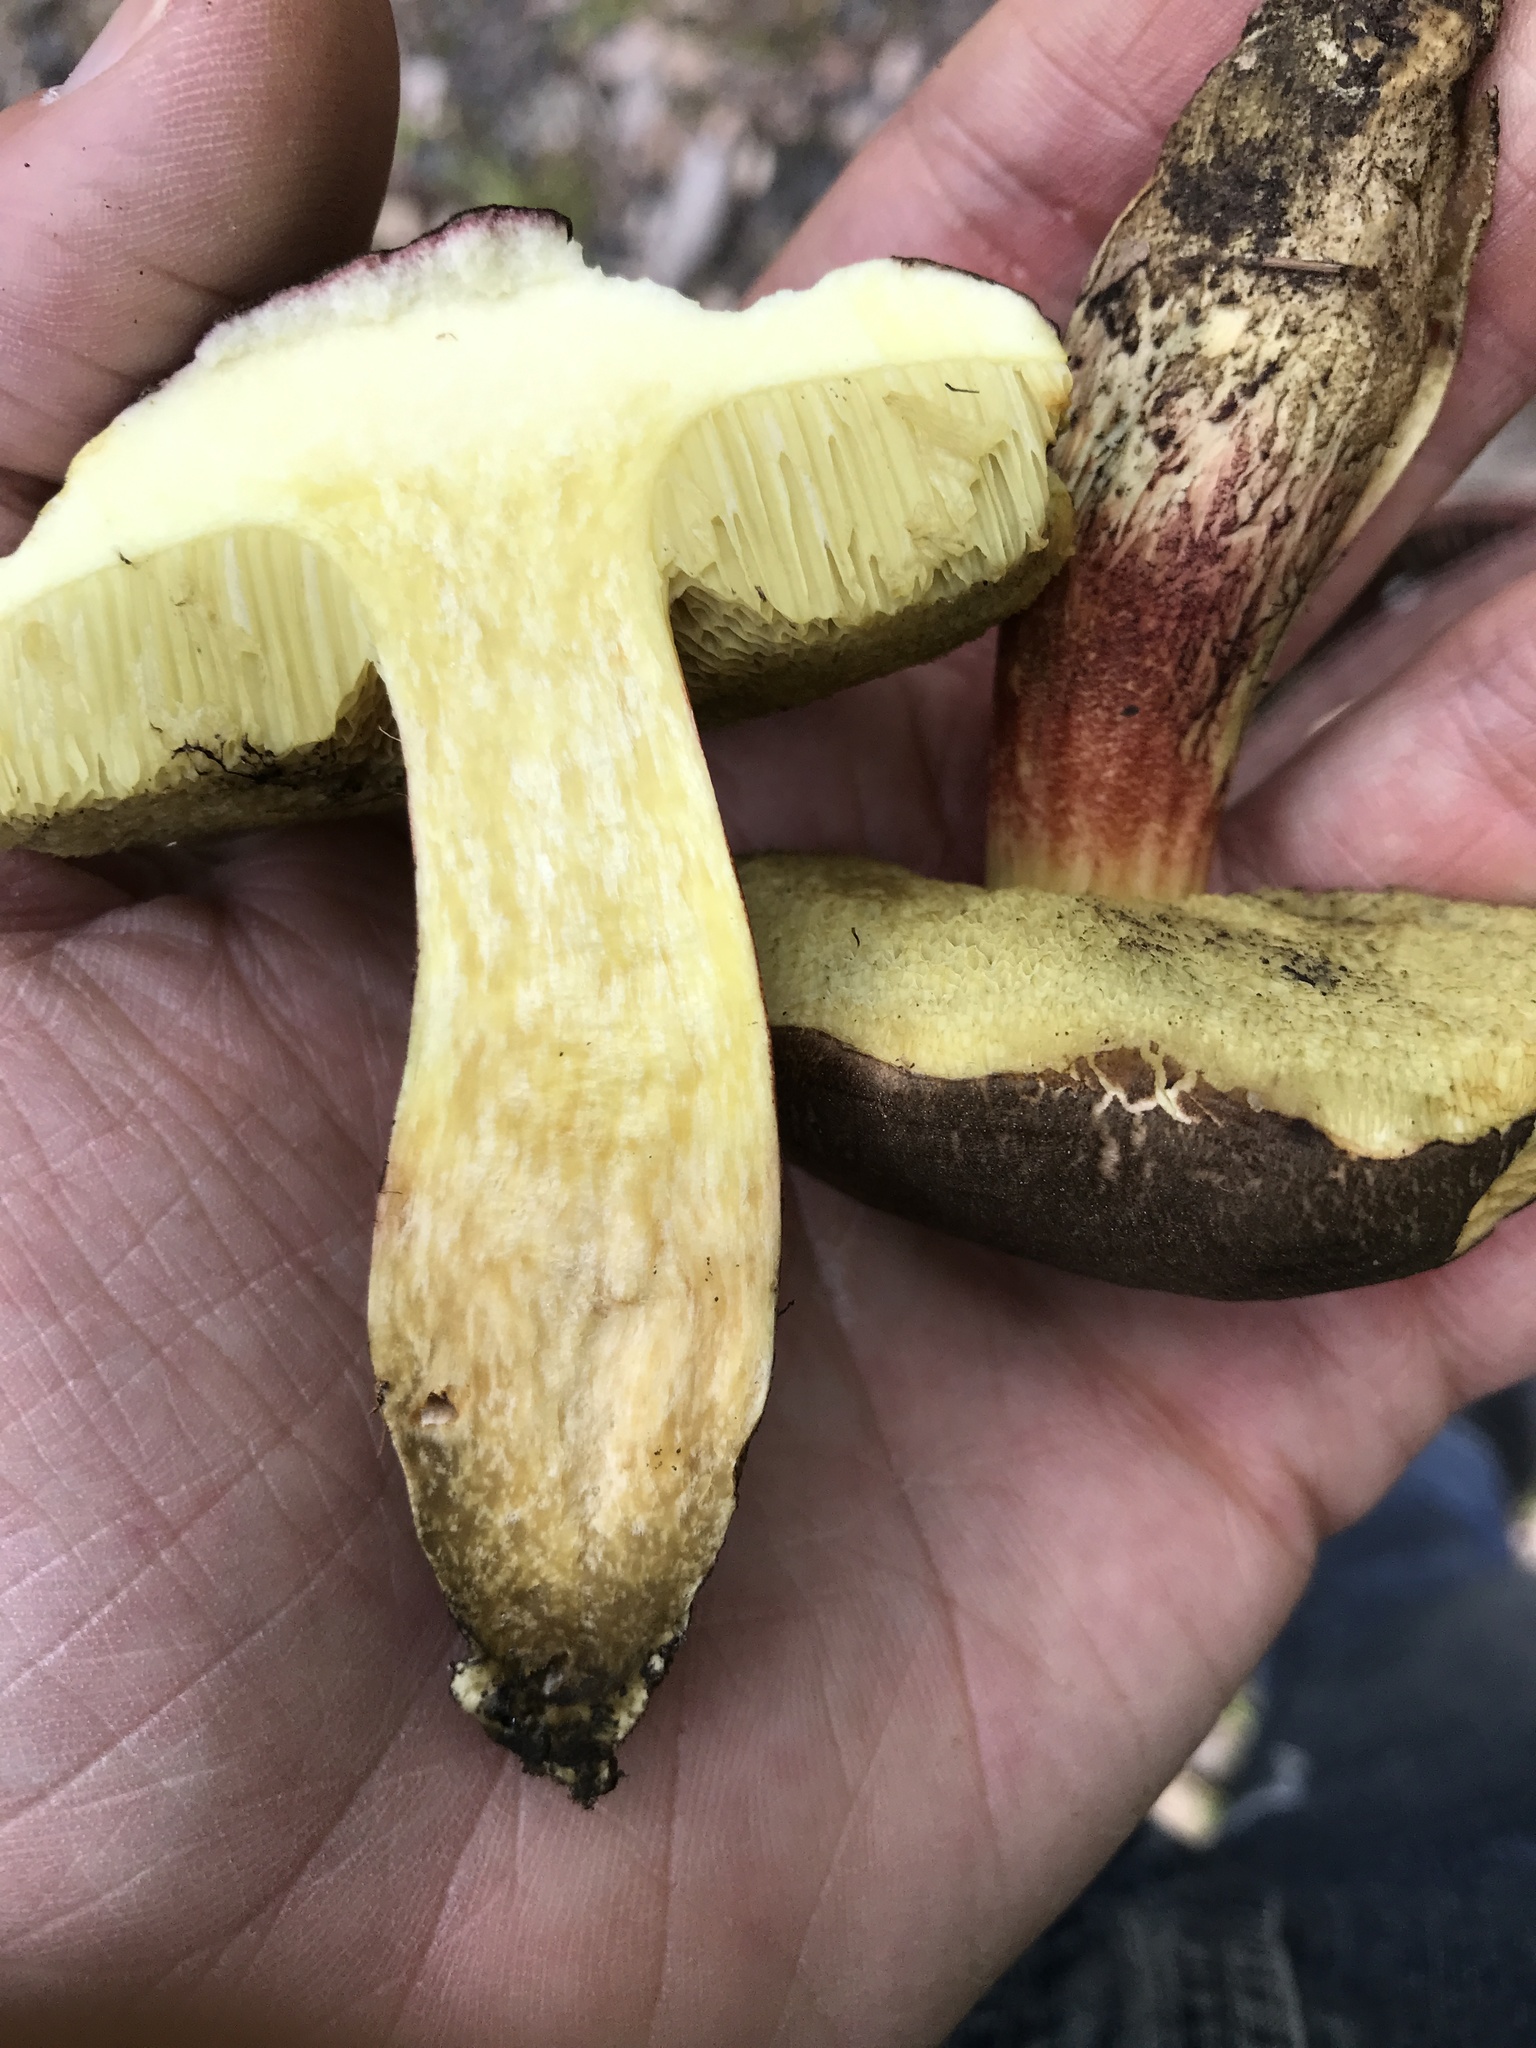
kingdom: Fungi
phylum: Basidiomycota
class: Agaricomycetes
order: Boletales
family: Boletaceae
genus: Xerocomellus
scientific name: Xerocomellus chrysenteron
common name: Red-cracking bolete
